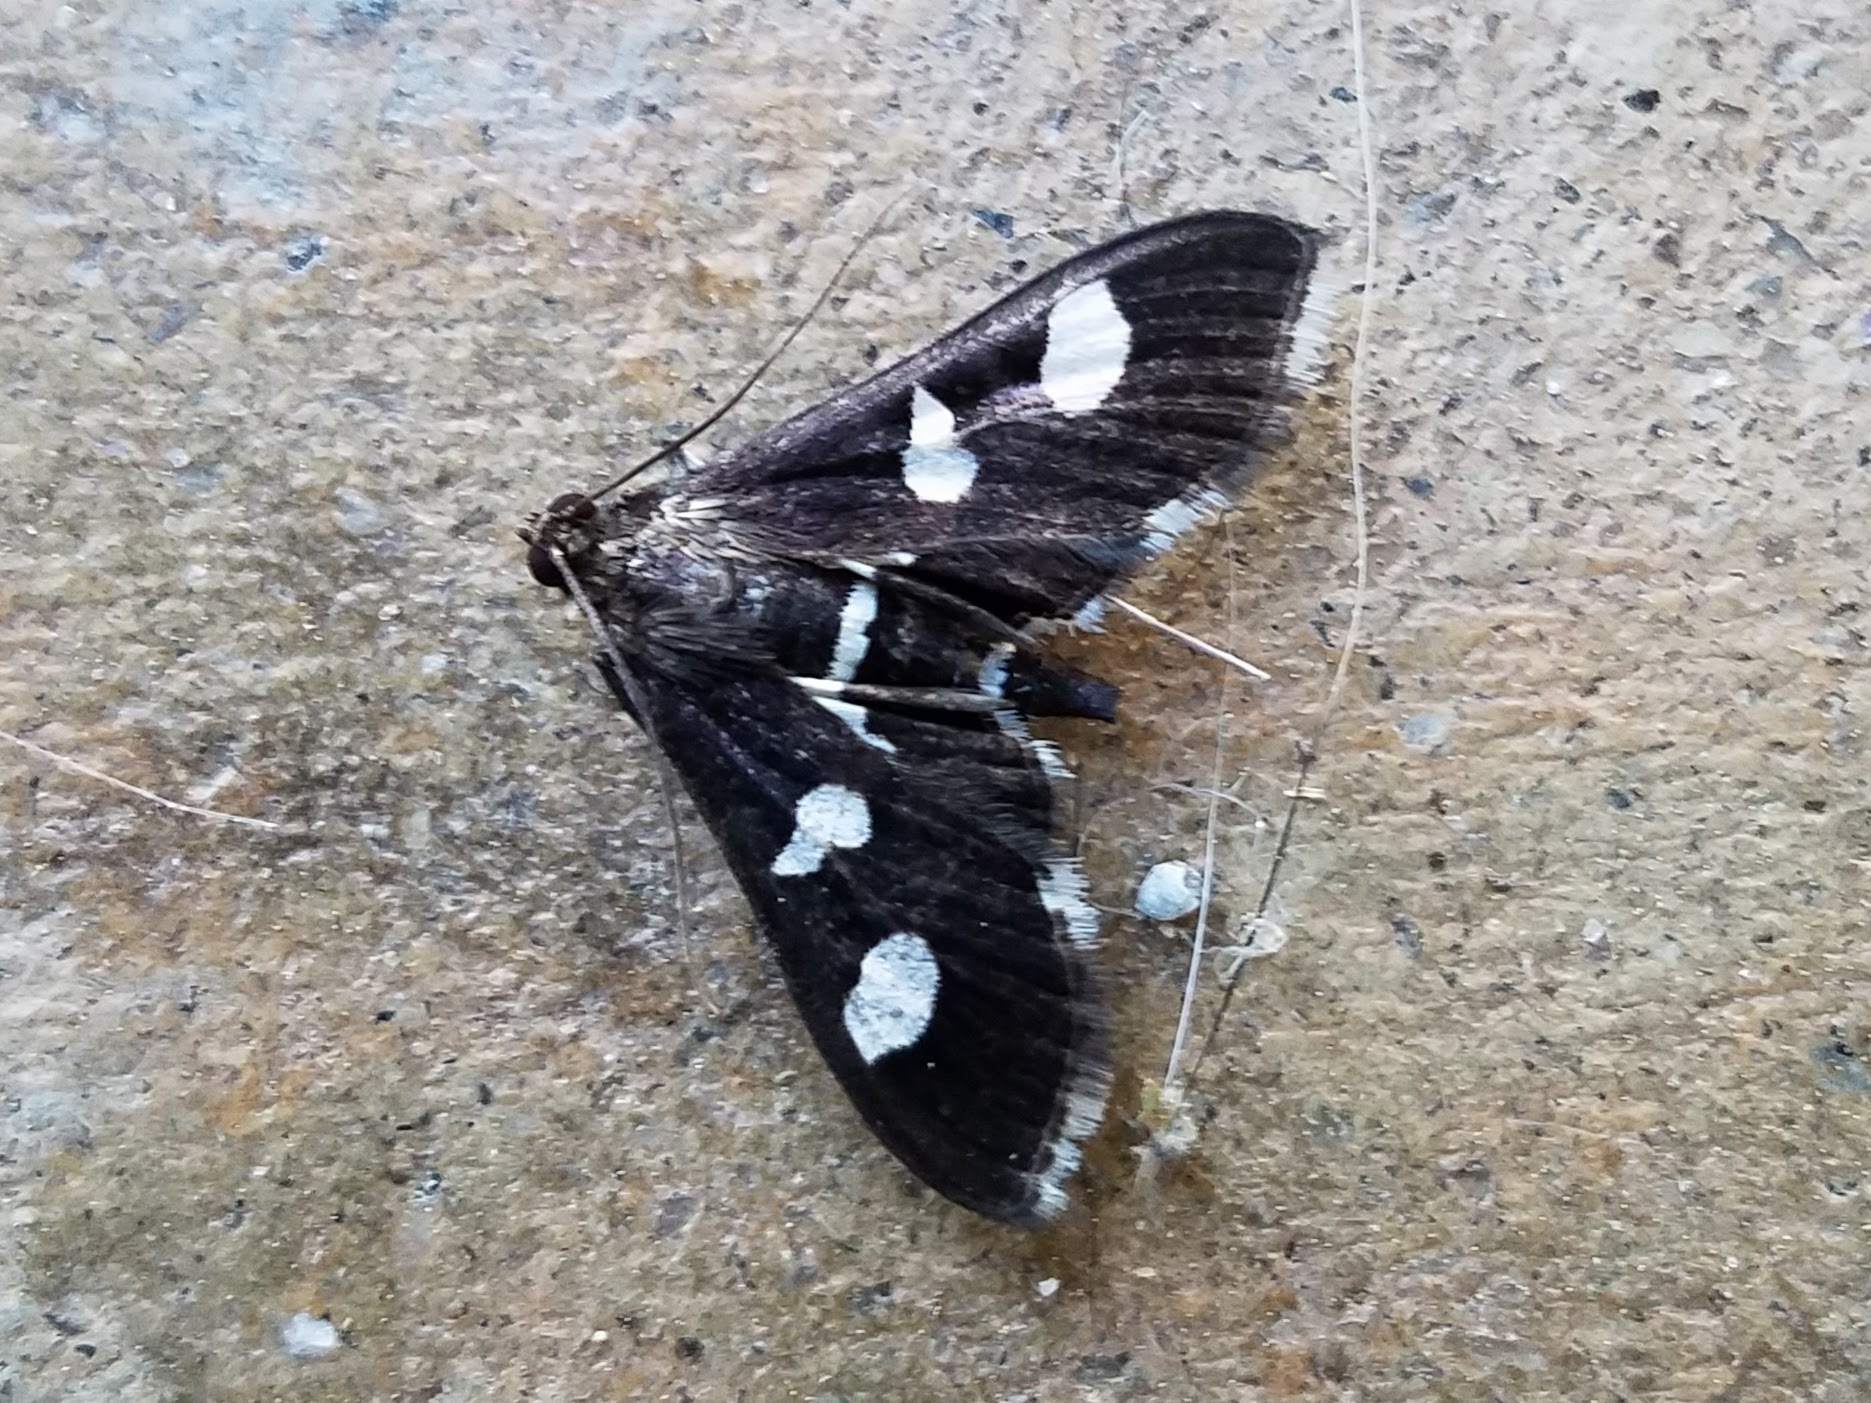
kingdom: Animalia
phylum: Arthropoda
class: Insecta
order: Lepidoptera
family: Crambidae
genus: Desmia
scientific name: Desmia
